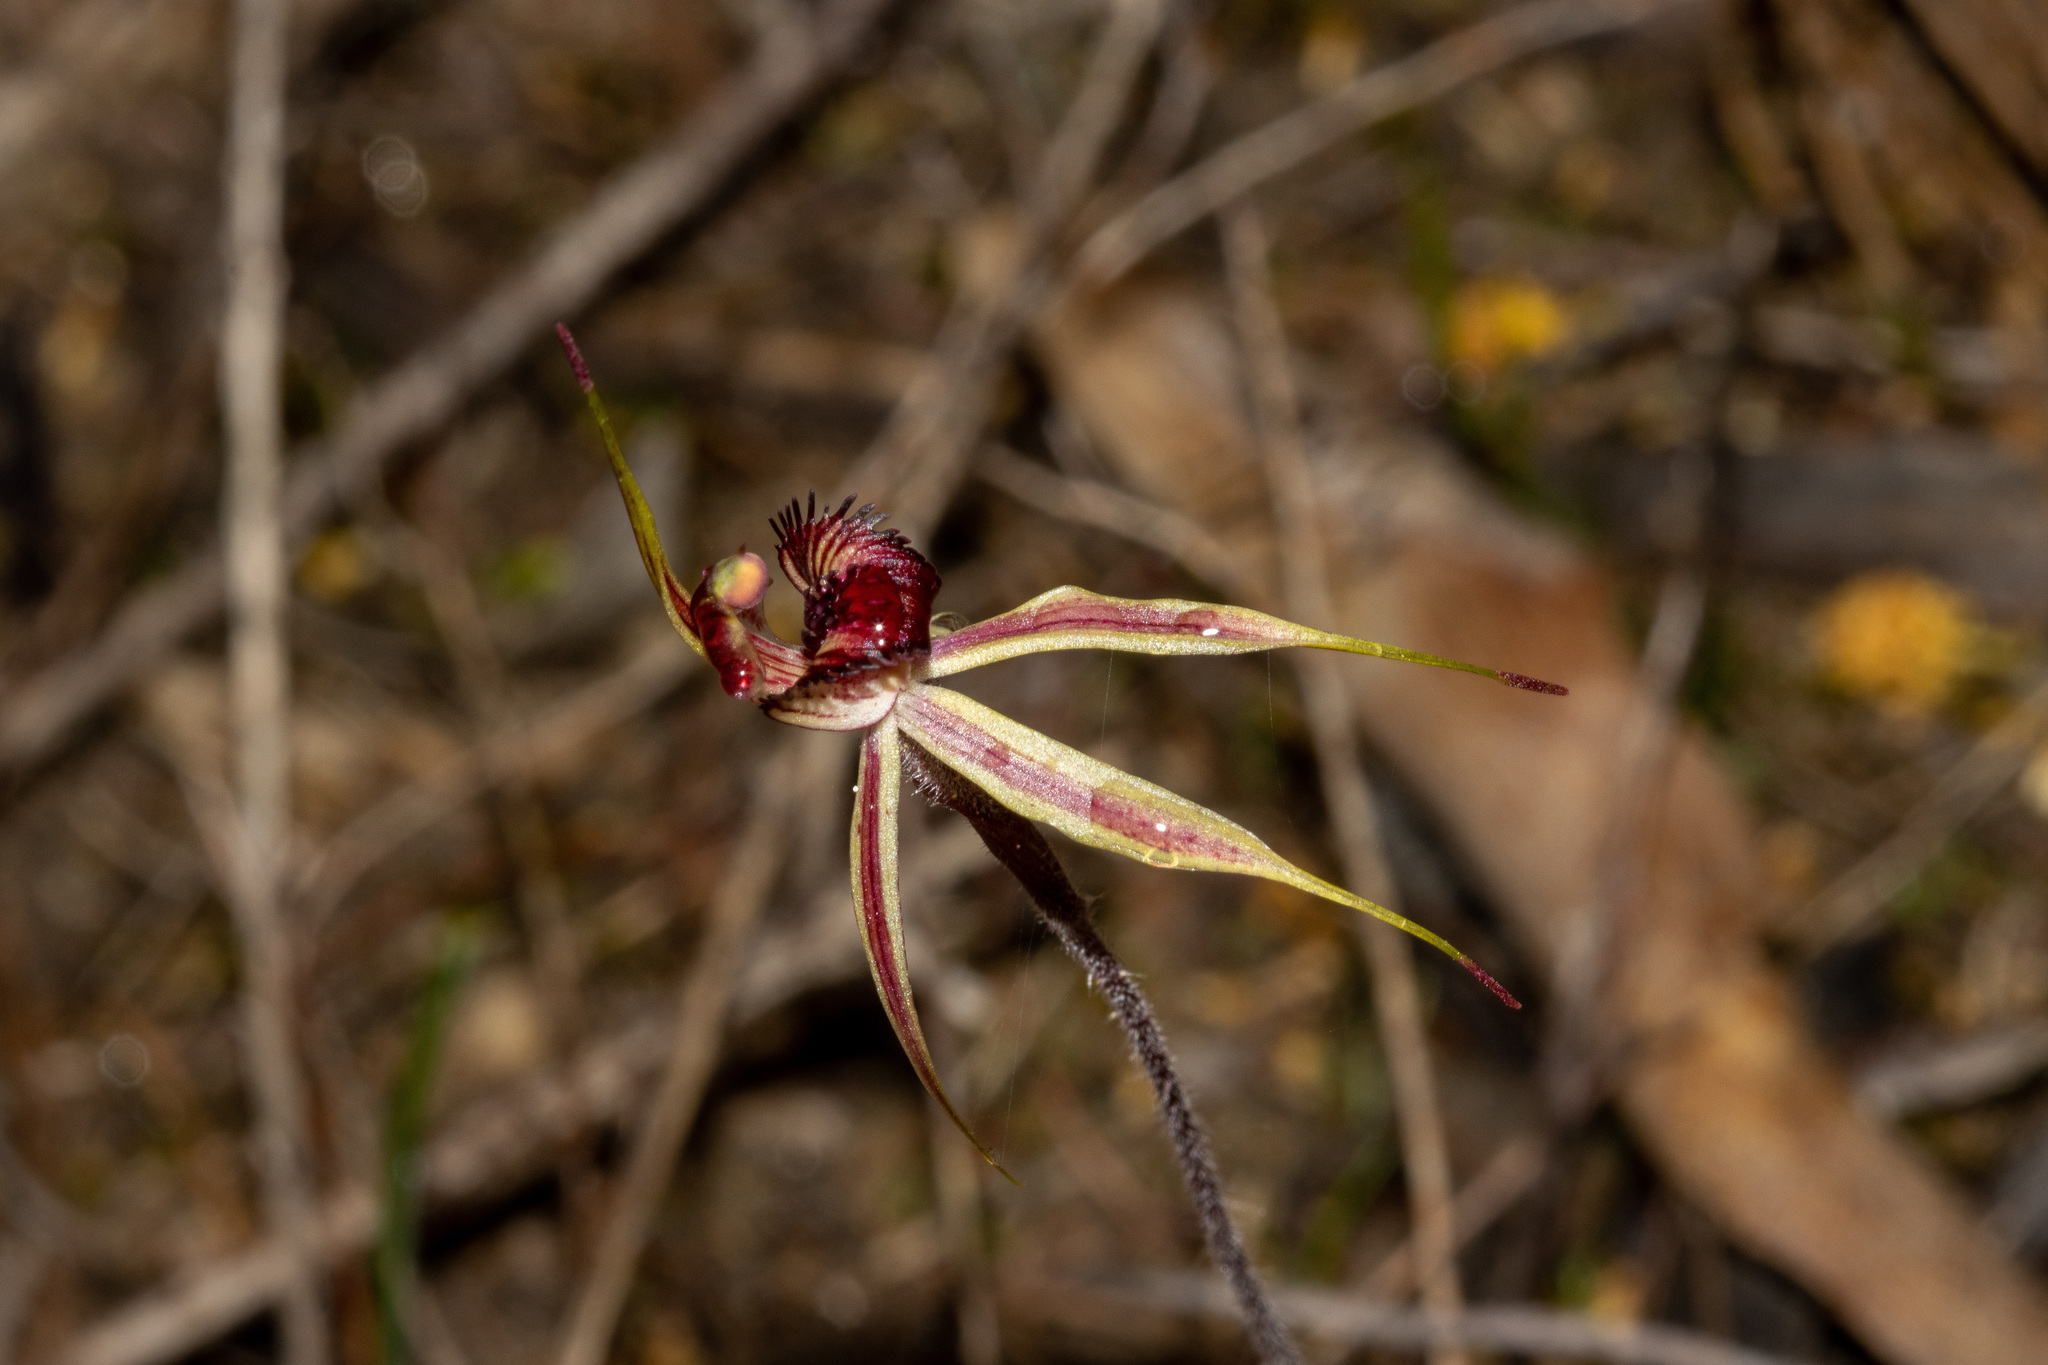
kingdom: Plantae
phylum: Tracheophyta
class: Liliopsida
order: Asparagales
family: Orchidaceae
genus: Caladenia
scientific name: Caladenia reticulata
